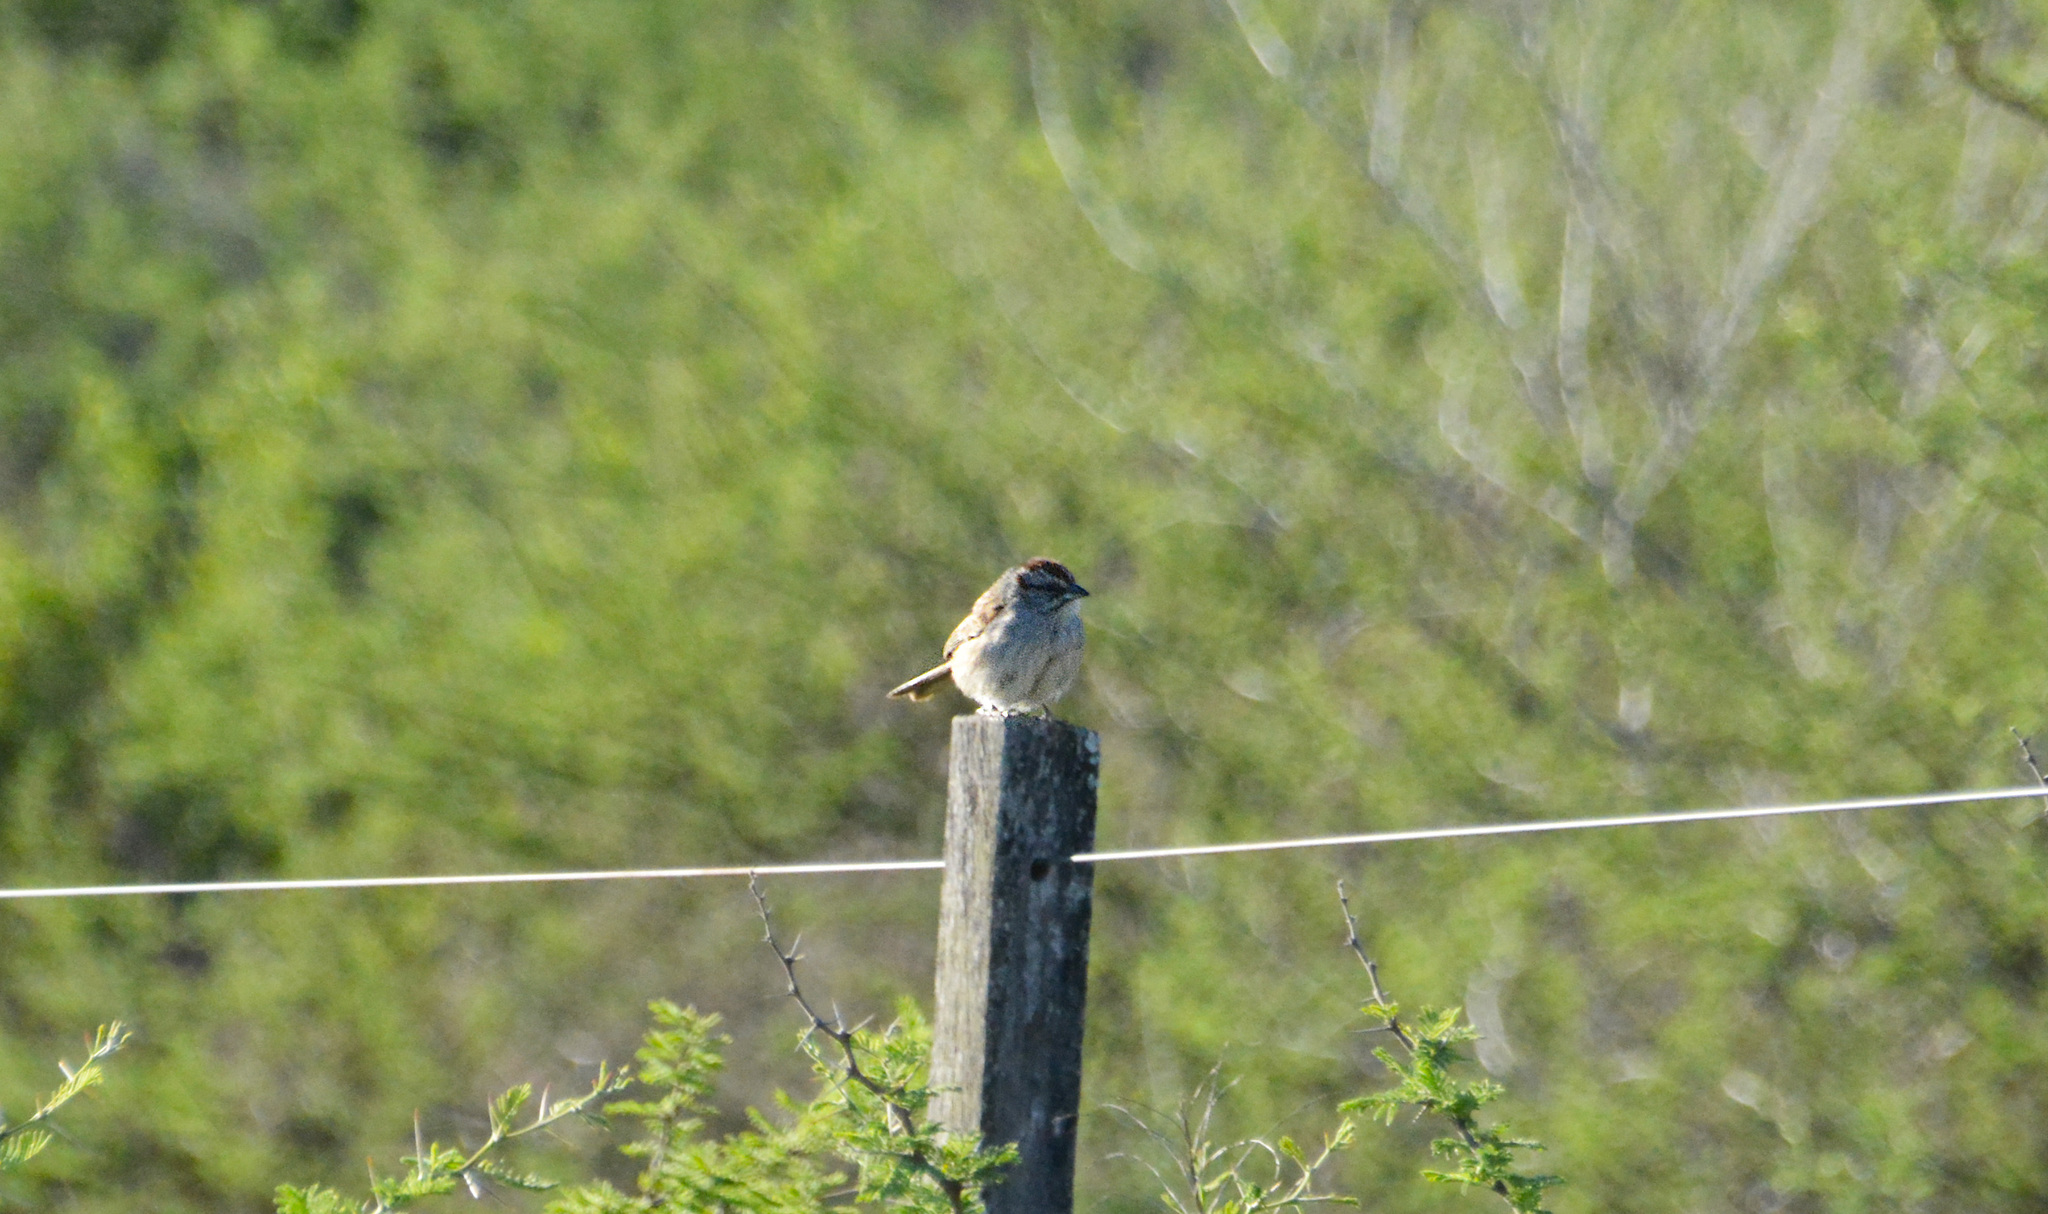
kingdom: Animalia
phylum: Chordata
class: Aves
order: Passeriformes
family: Passerellidae
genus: Rhynchospiza
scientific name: Rhynchospiza strigiceps
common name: Stripe-capped sparrow
